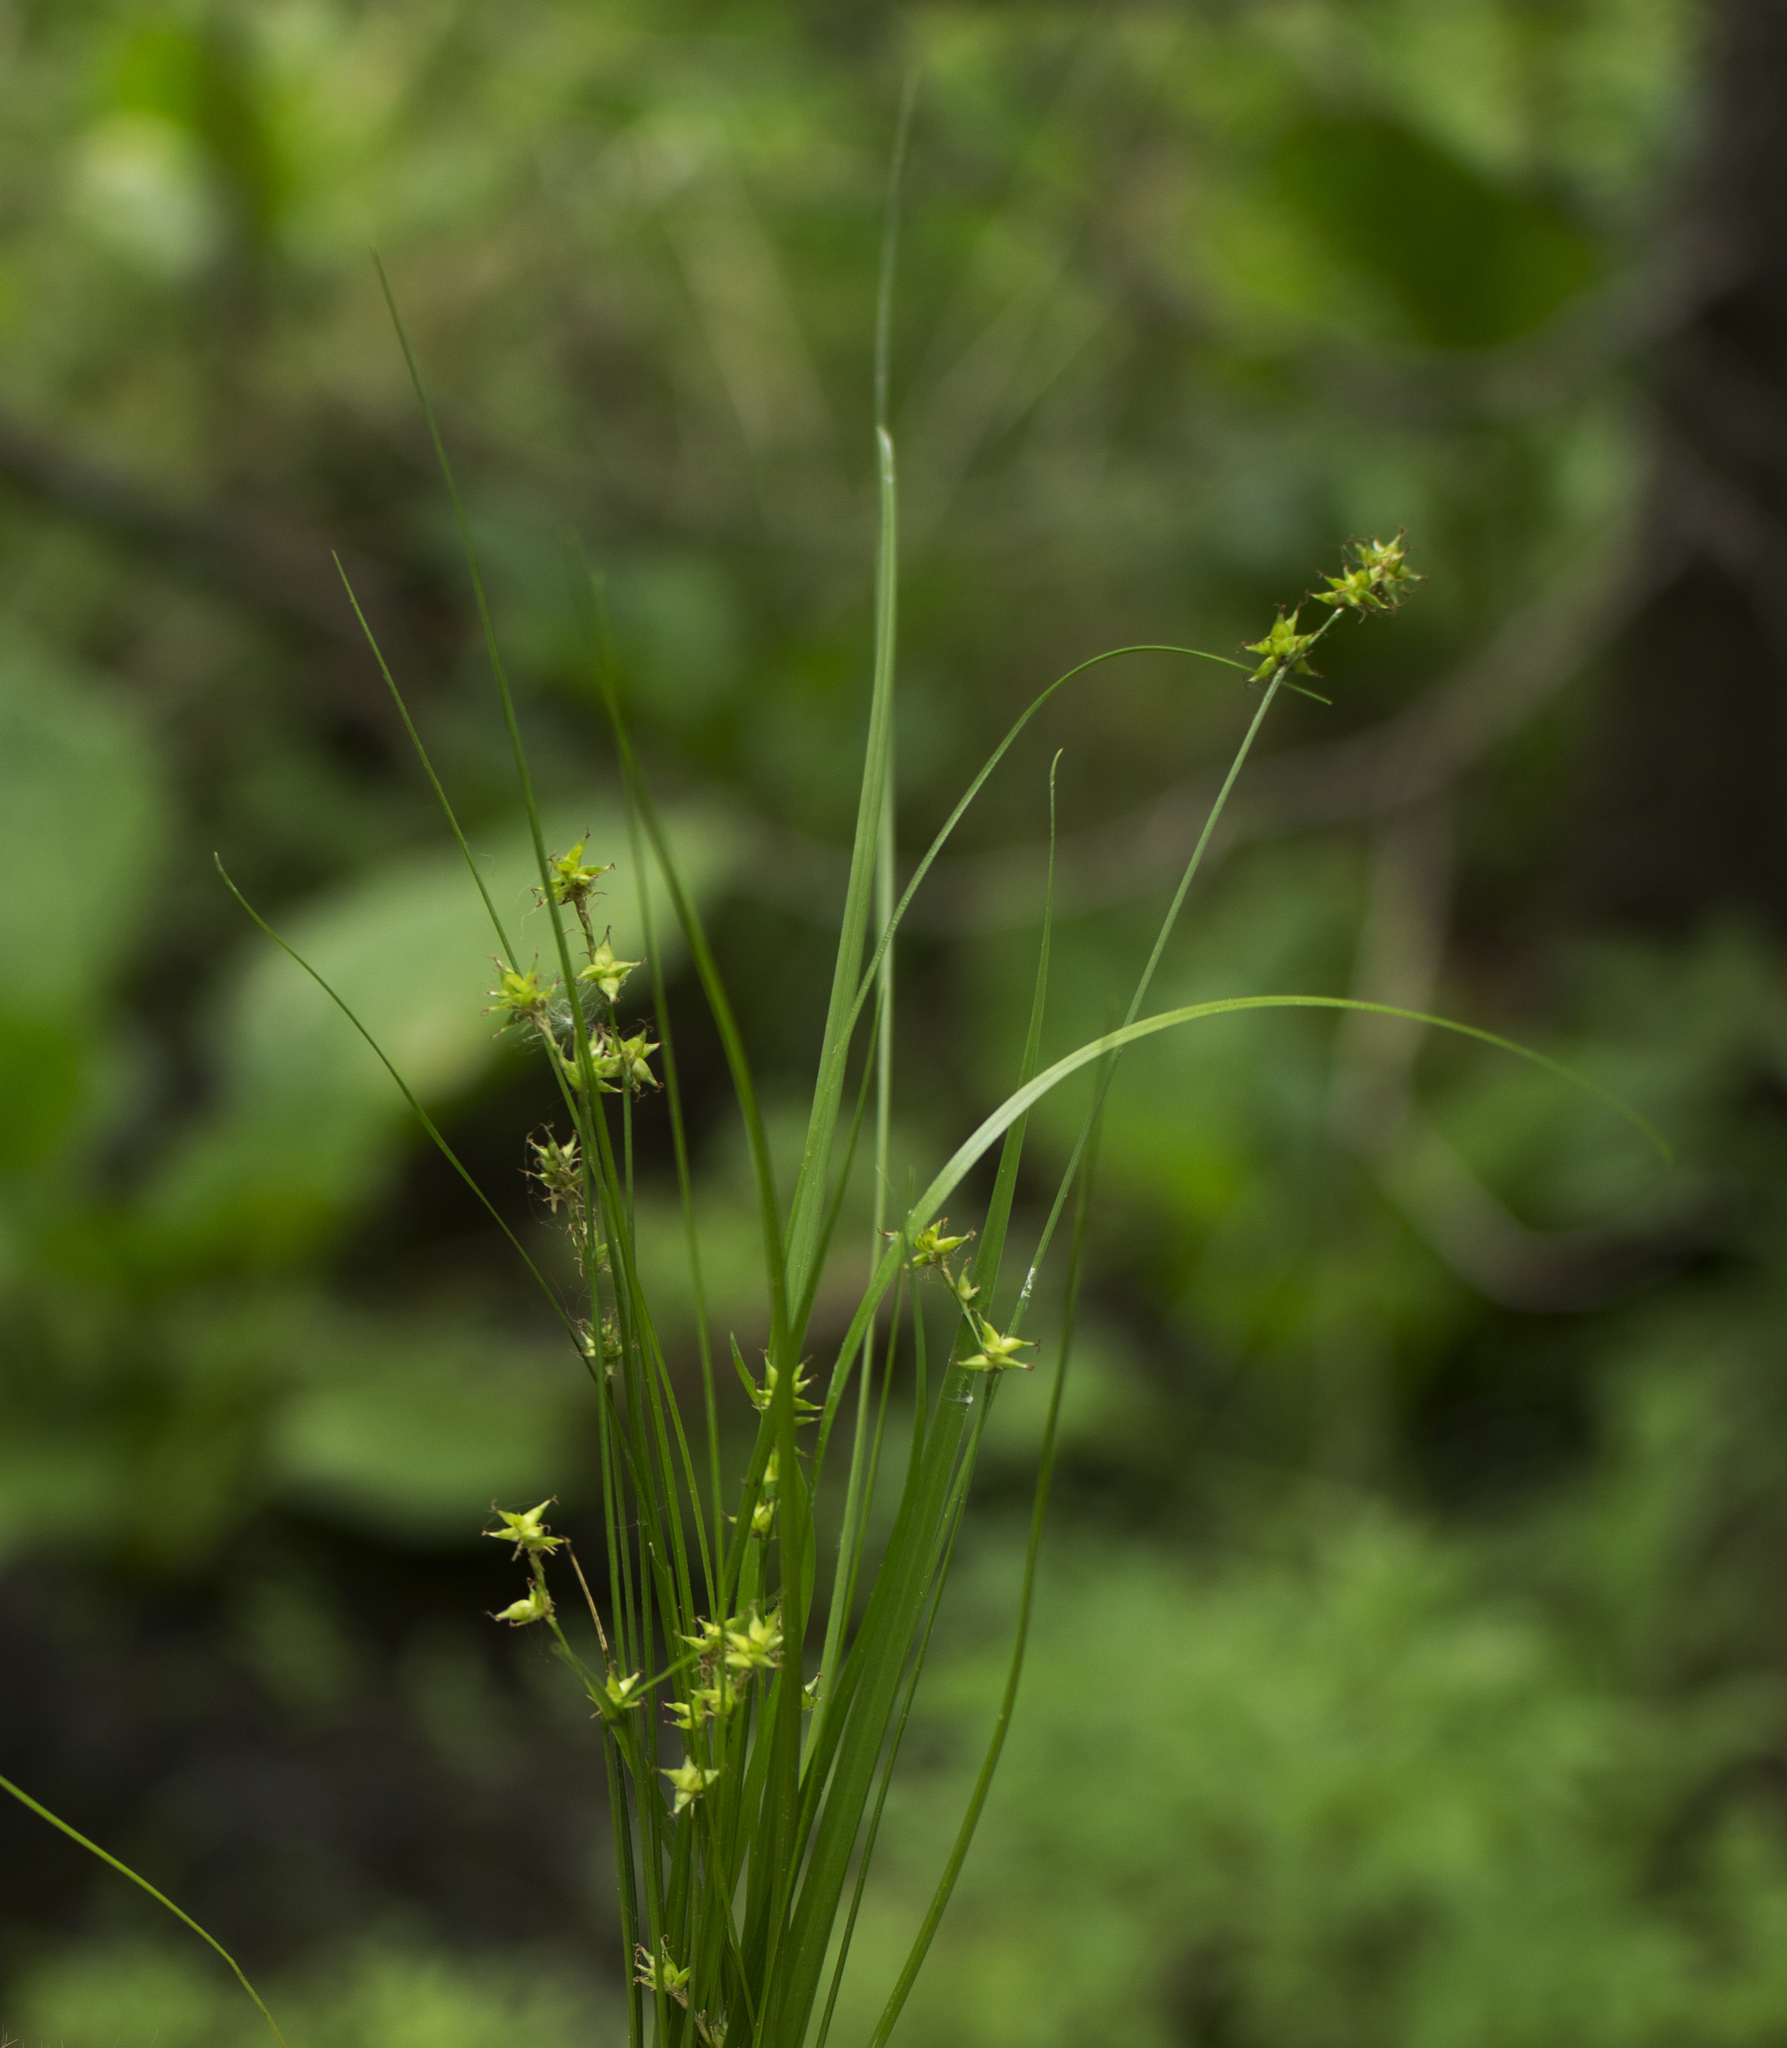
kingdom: Plantae
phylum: Tracheophyta
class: Liliopsida
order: Poales
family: Cyperaceae
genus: Carex
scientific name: Carex interior
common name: Inland sedge
